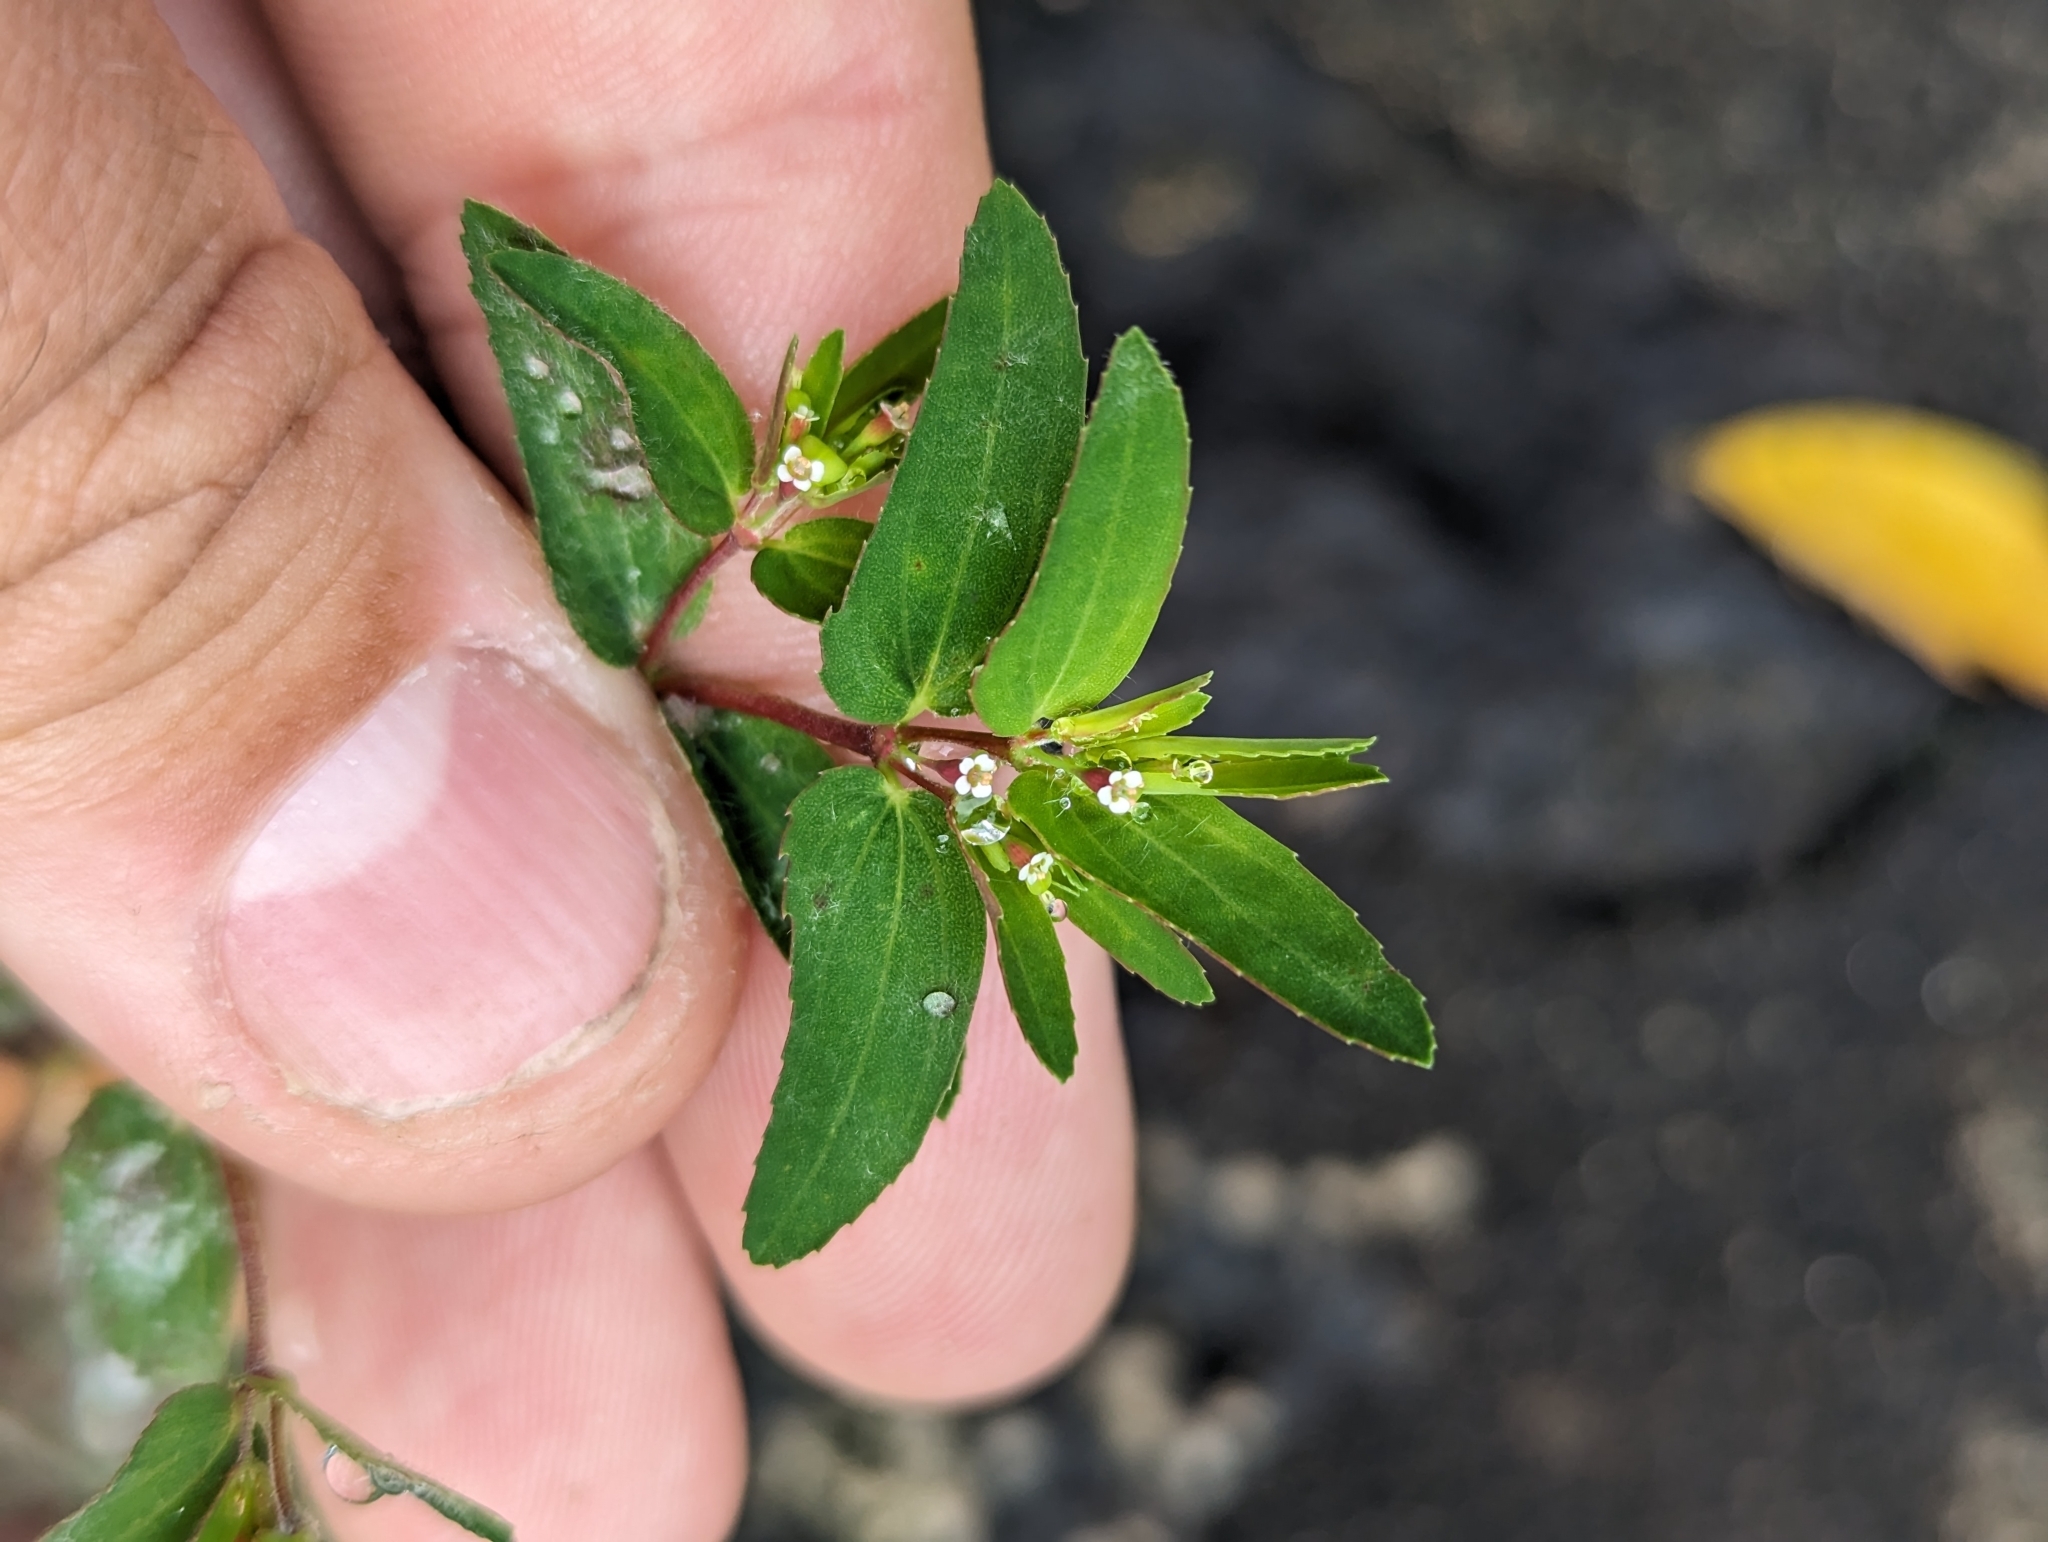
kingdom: Plantae
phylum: Tracheophyta
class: Magnoliopsida
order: Malpighiales
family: Euphorbiaceae
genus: Euphorbia
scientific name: Euphorbia nutans
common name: Eyebane
